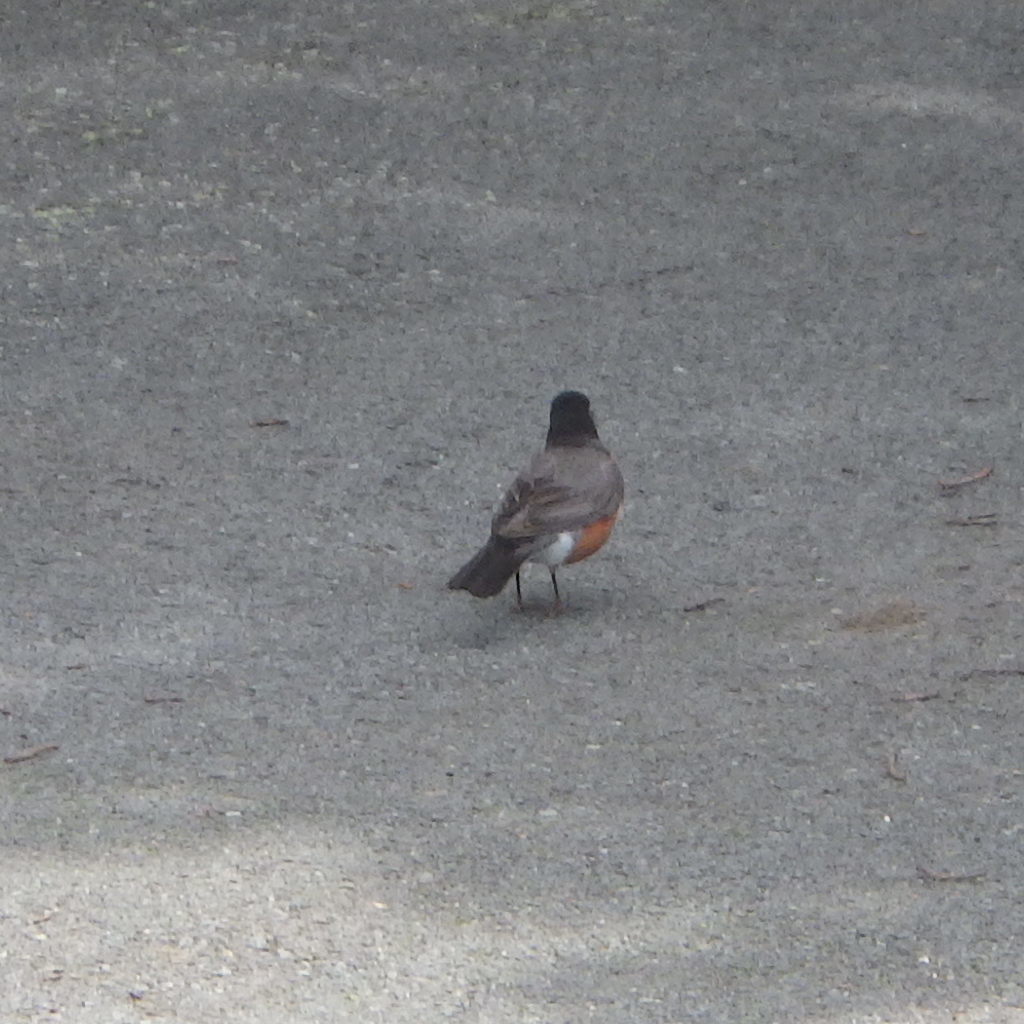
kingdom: Animalia
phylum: Chordata
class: Aves
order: Passeriformes
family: Turdidae
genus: Turdus
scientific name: Turdus migratorius
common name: American robin
